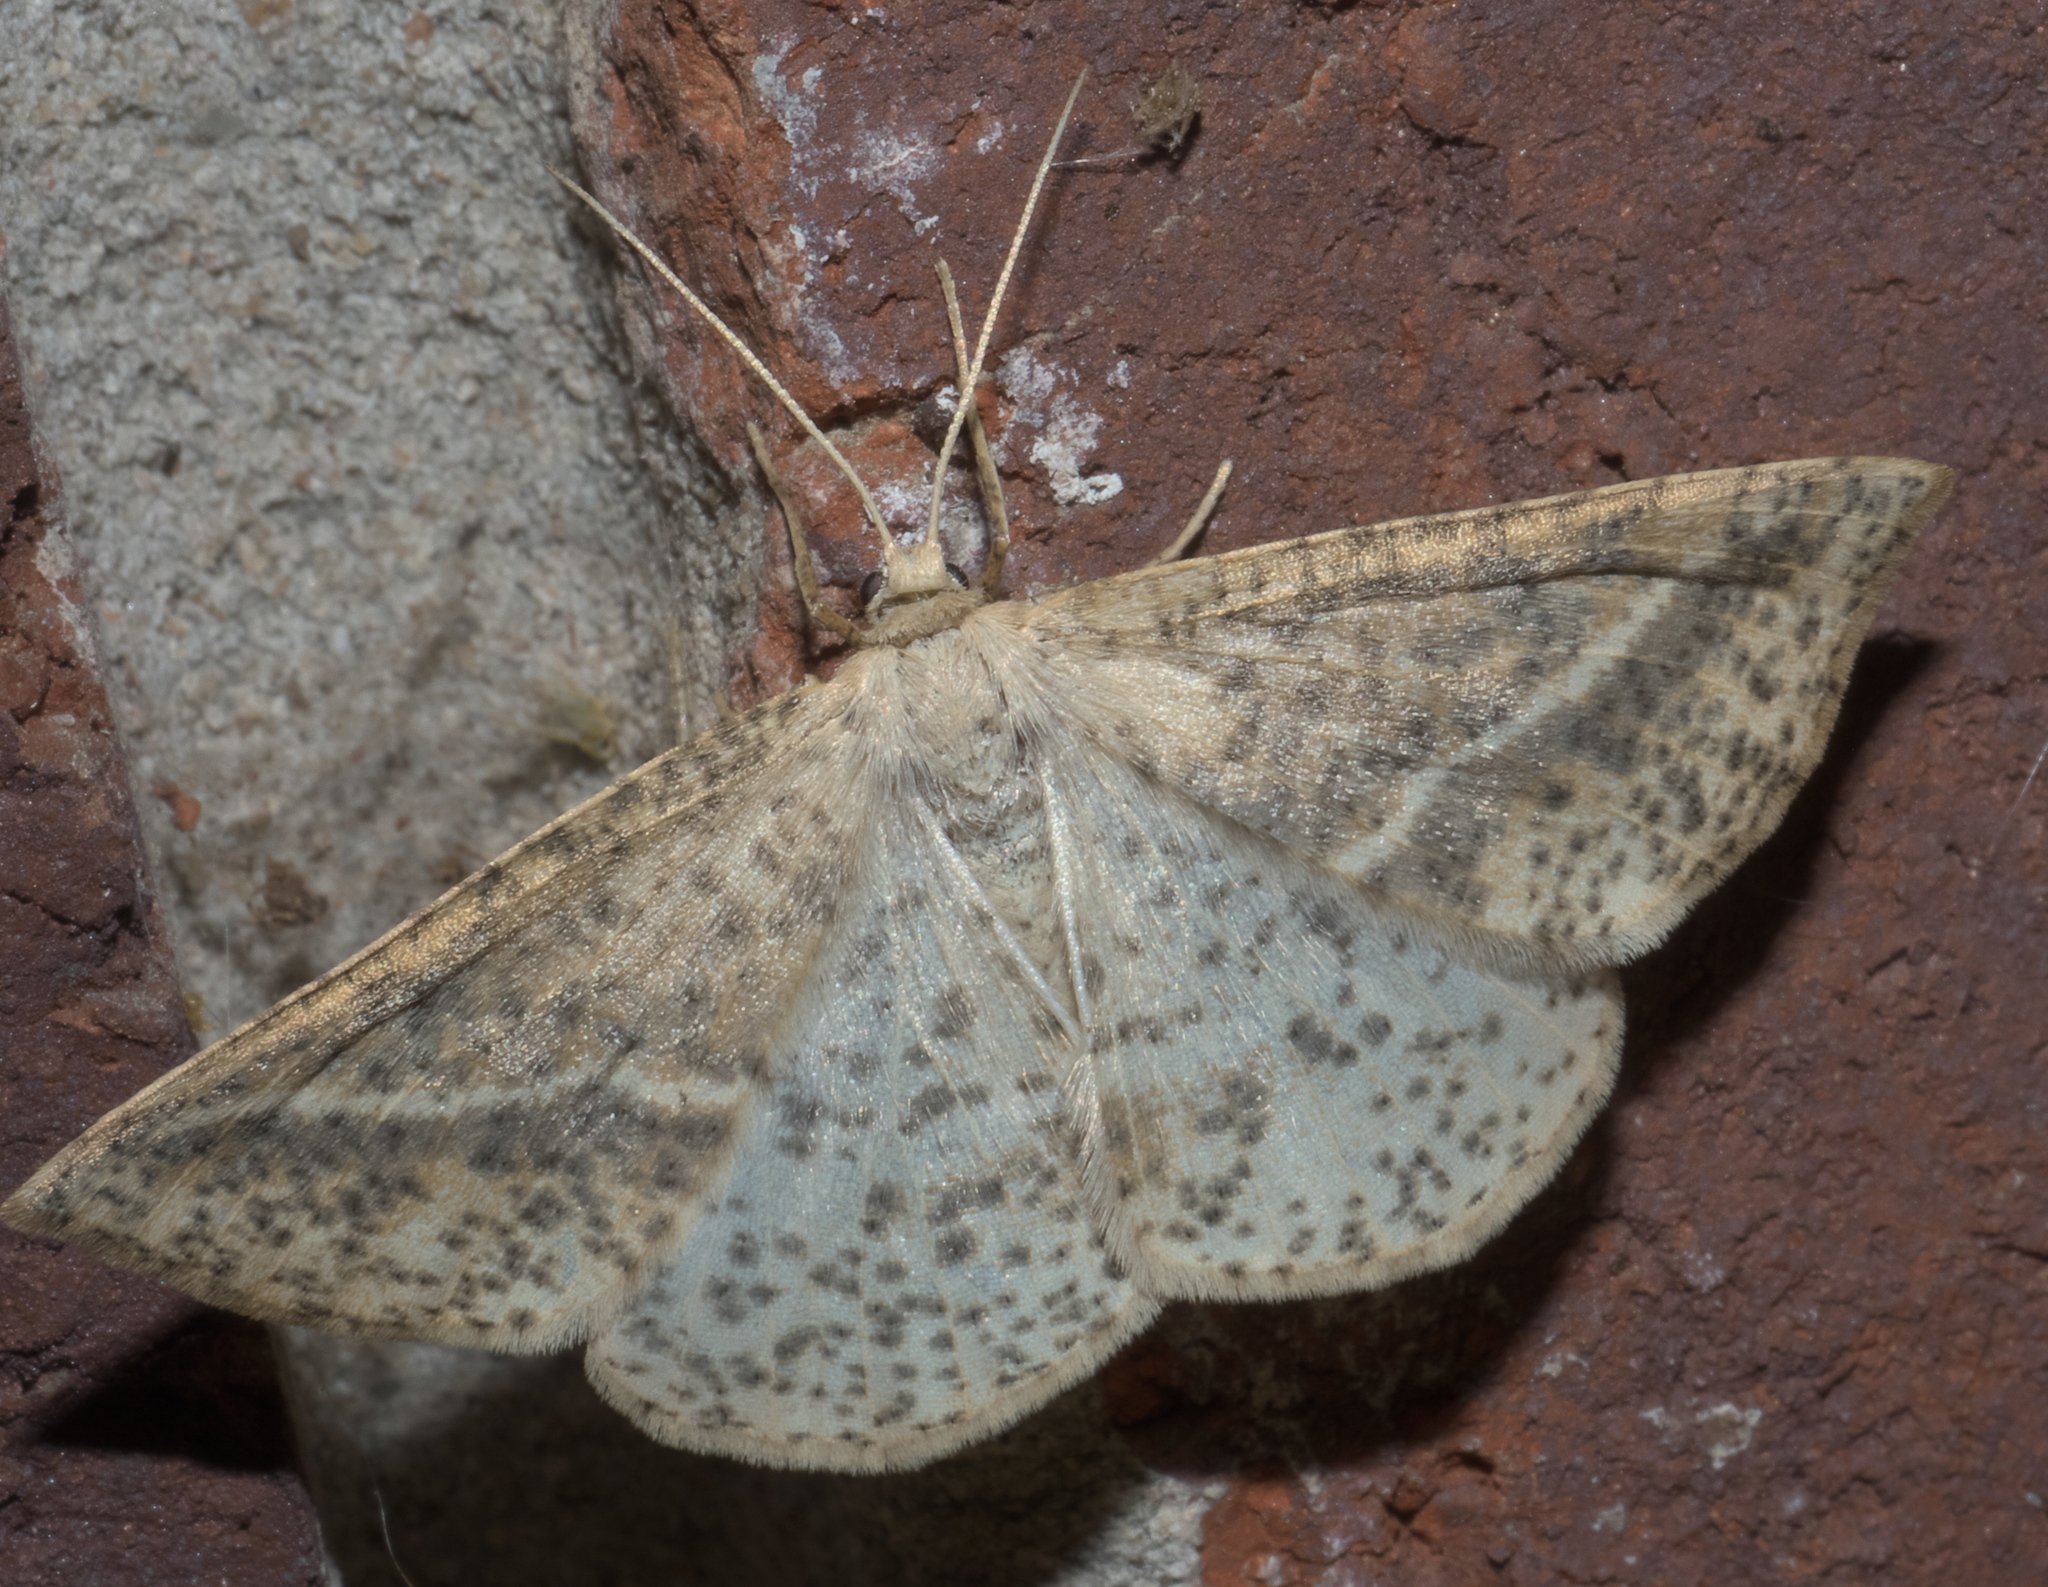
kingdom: Animalia
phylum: Arthropoda
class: Insecta
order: Lepidoptera
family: Geometridae
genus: Lychnosea
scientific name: Lychnosea intermicata
